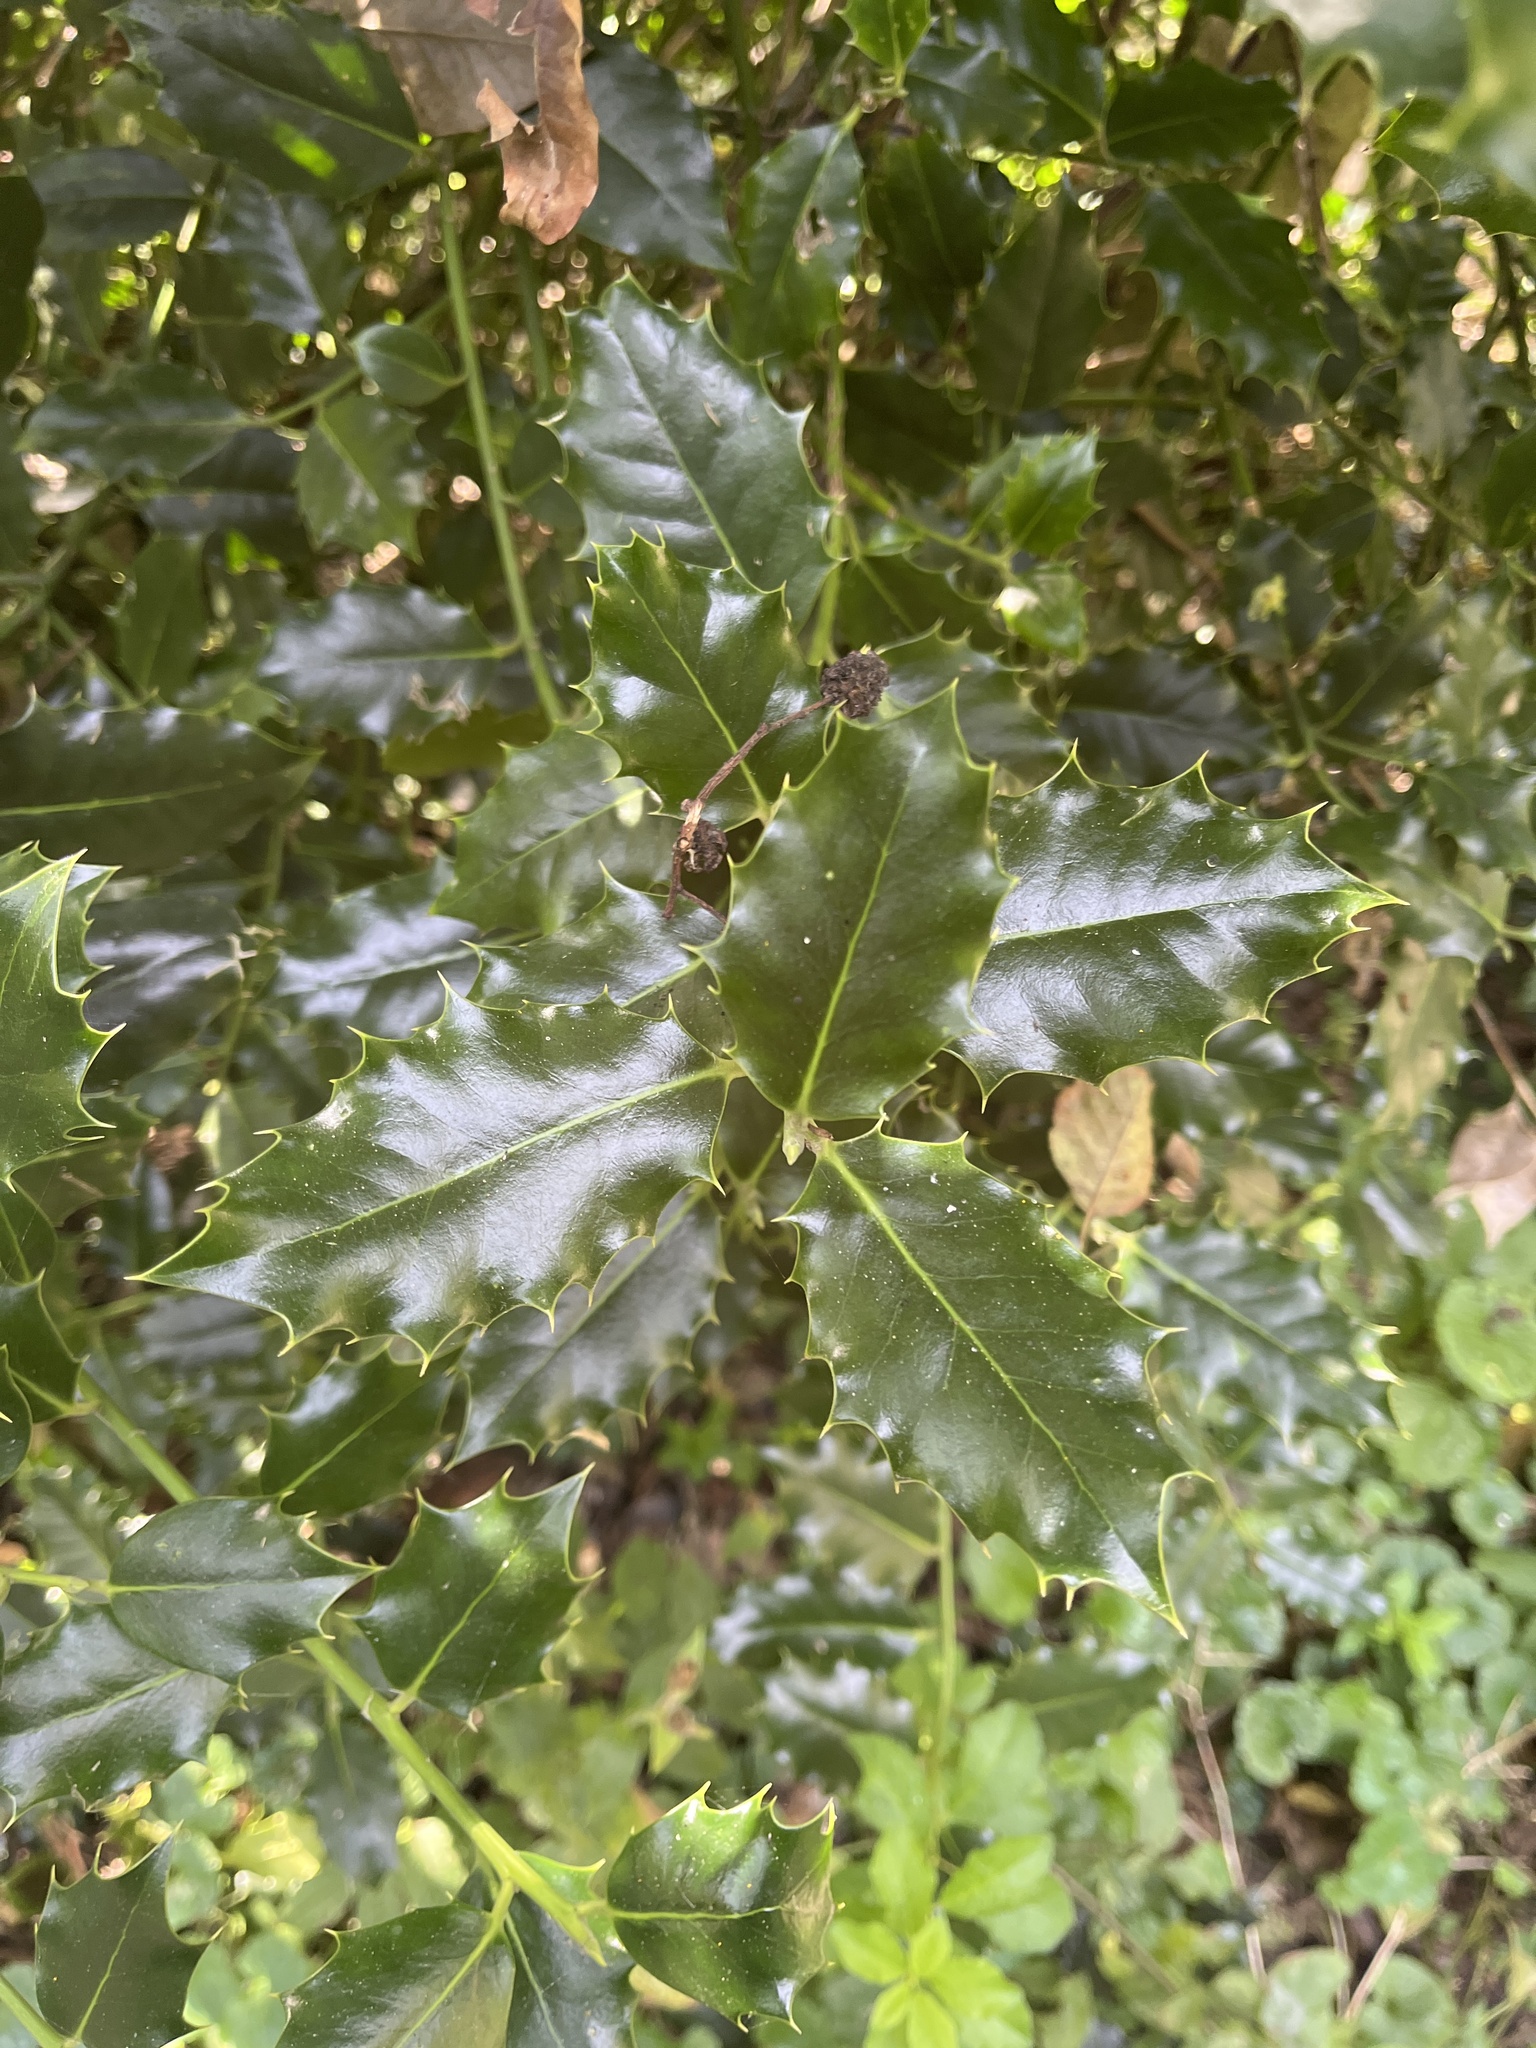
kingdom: Plantae
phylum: Tracheophyta
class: Magnoliopsida
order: Aquifoliales
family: Aquifoliaceae
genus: Ilex
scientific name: Ilex aquifolium
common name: English holly
